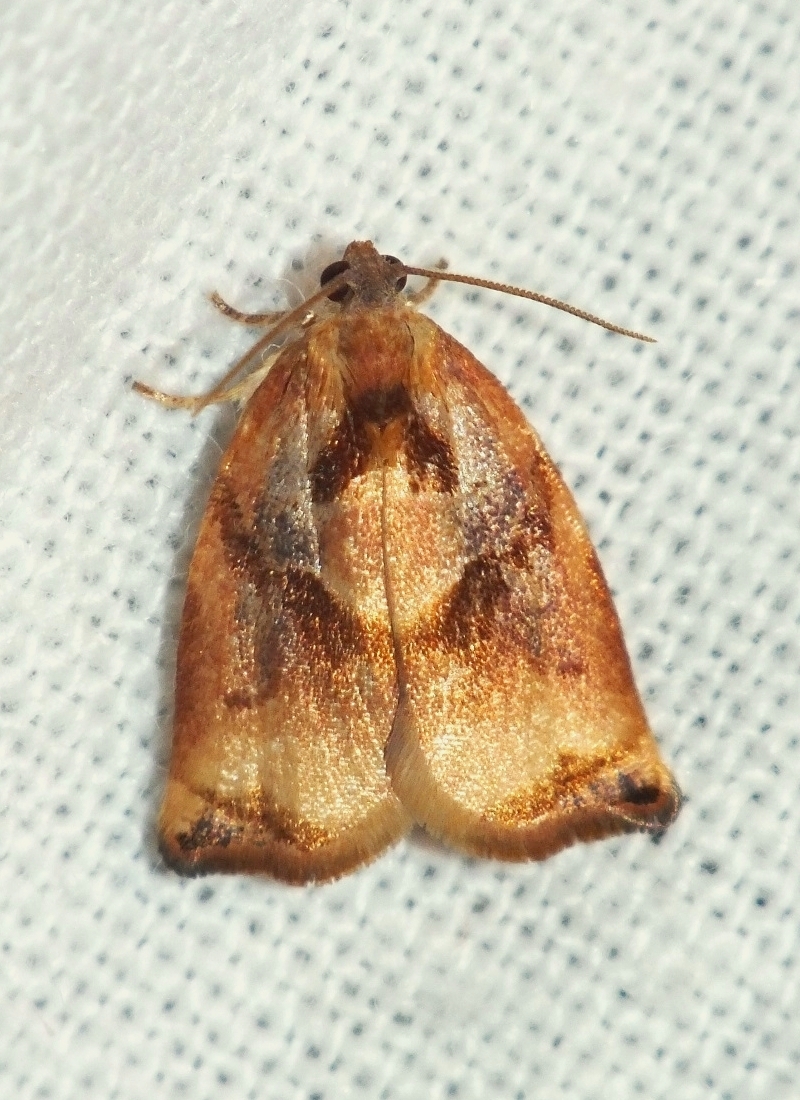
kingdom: Animalia
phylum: Arthropoda
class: Insecta
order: Lepidoptera
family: Tortricidae
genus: Archips
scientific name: Archips podana
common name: Large fruit-tree tortrix
